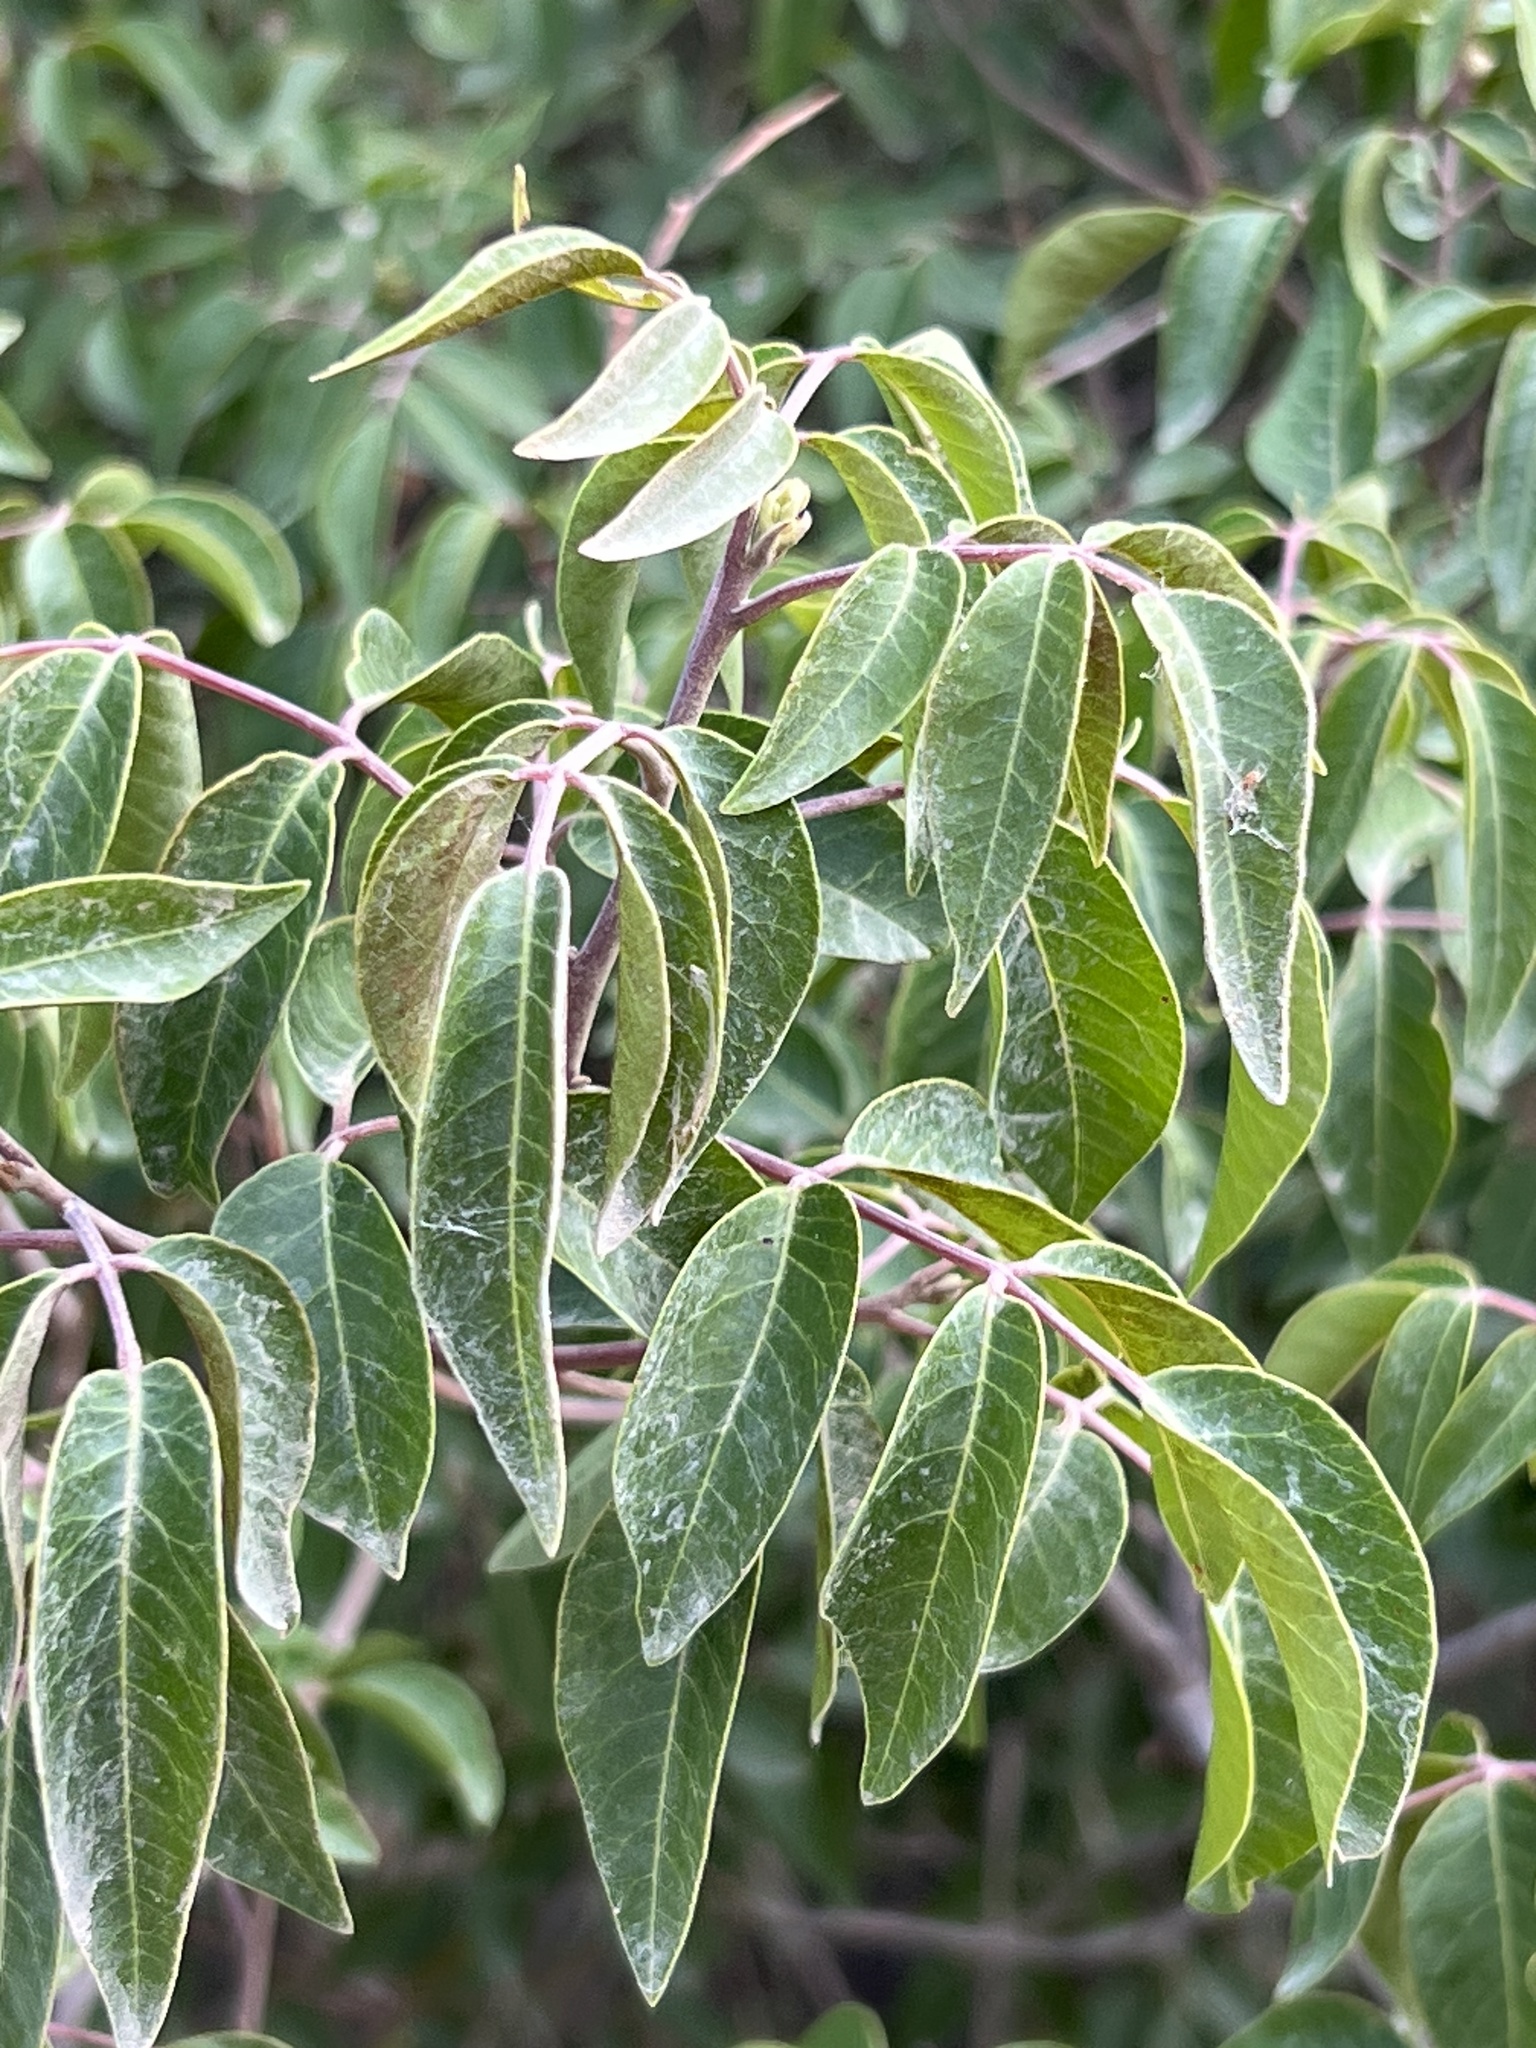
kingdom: Plantae
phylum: Tracheophyta
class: Magnoliopsida
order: Sapindales
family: Anacardiaceae
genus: Rhus
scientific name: Rhus virens
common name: Evergreen sumac
